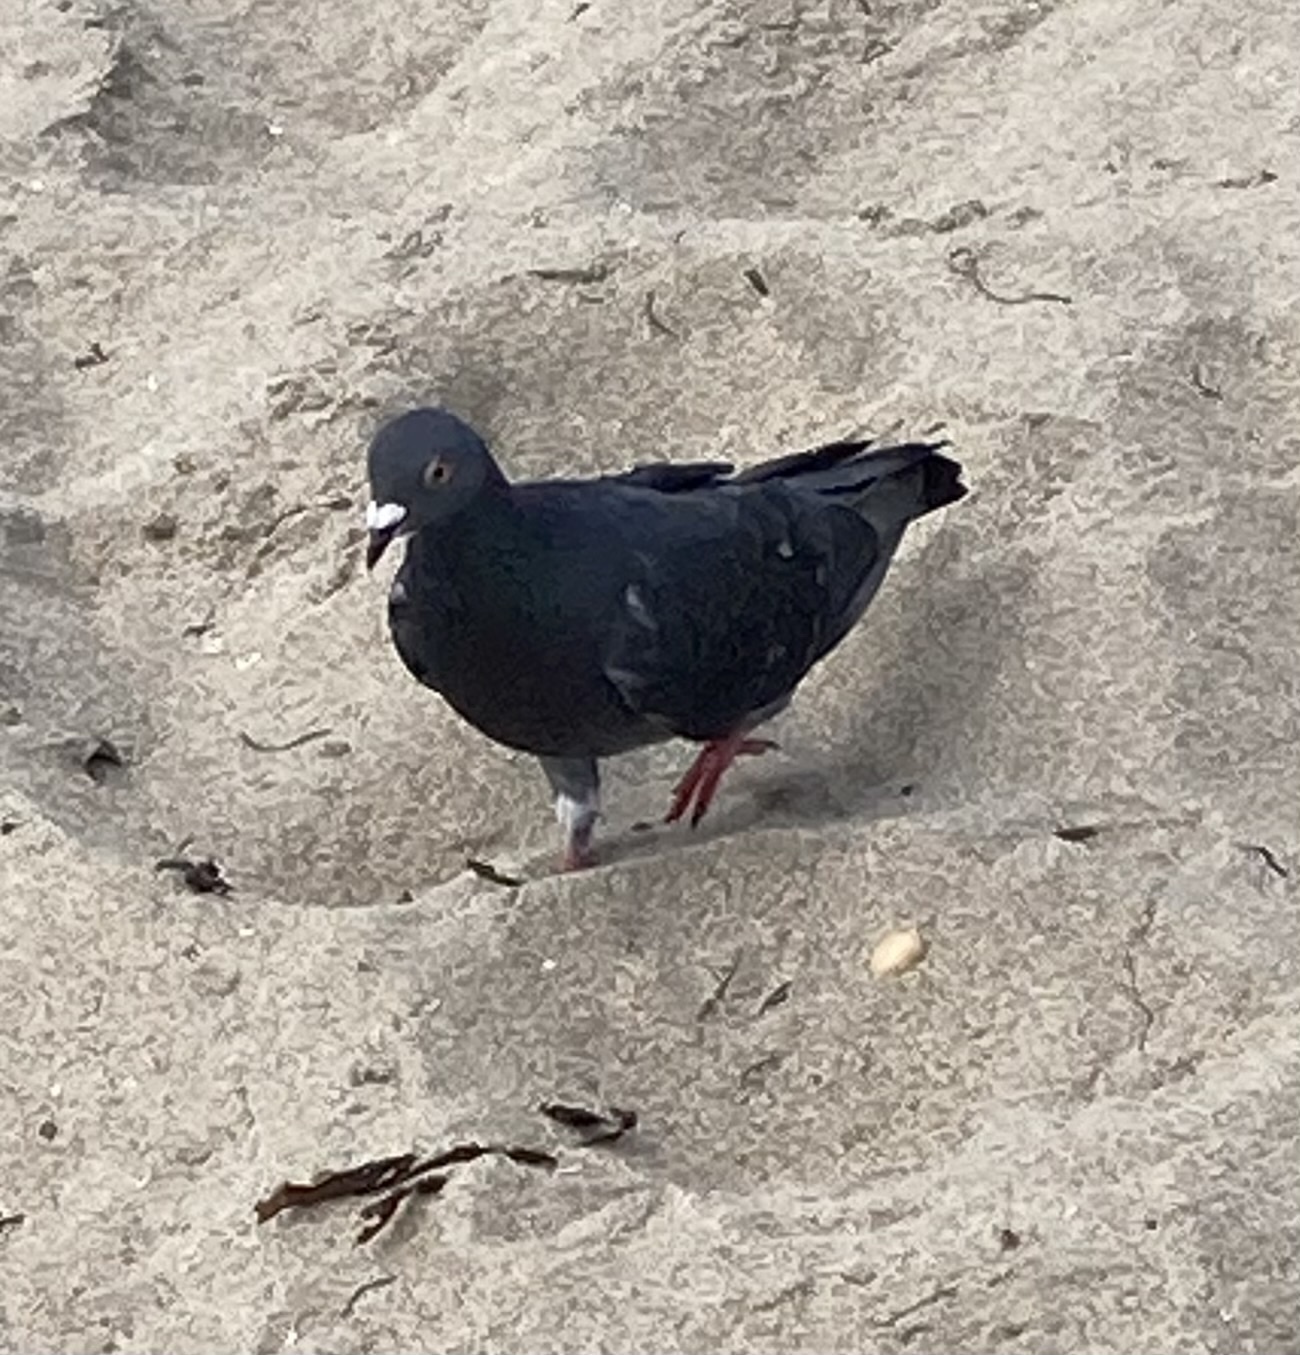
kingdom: Animalia
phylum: Chordata
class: Aves
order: Columbiformes
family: Columbidae
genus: Columba
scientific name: Columba livia
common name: Rock pigeon
